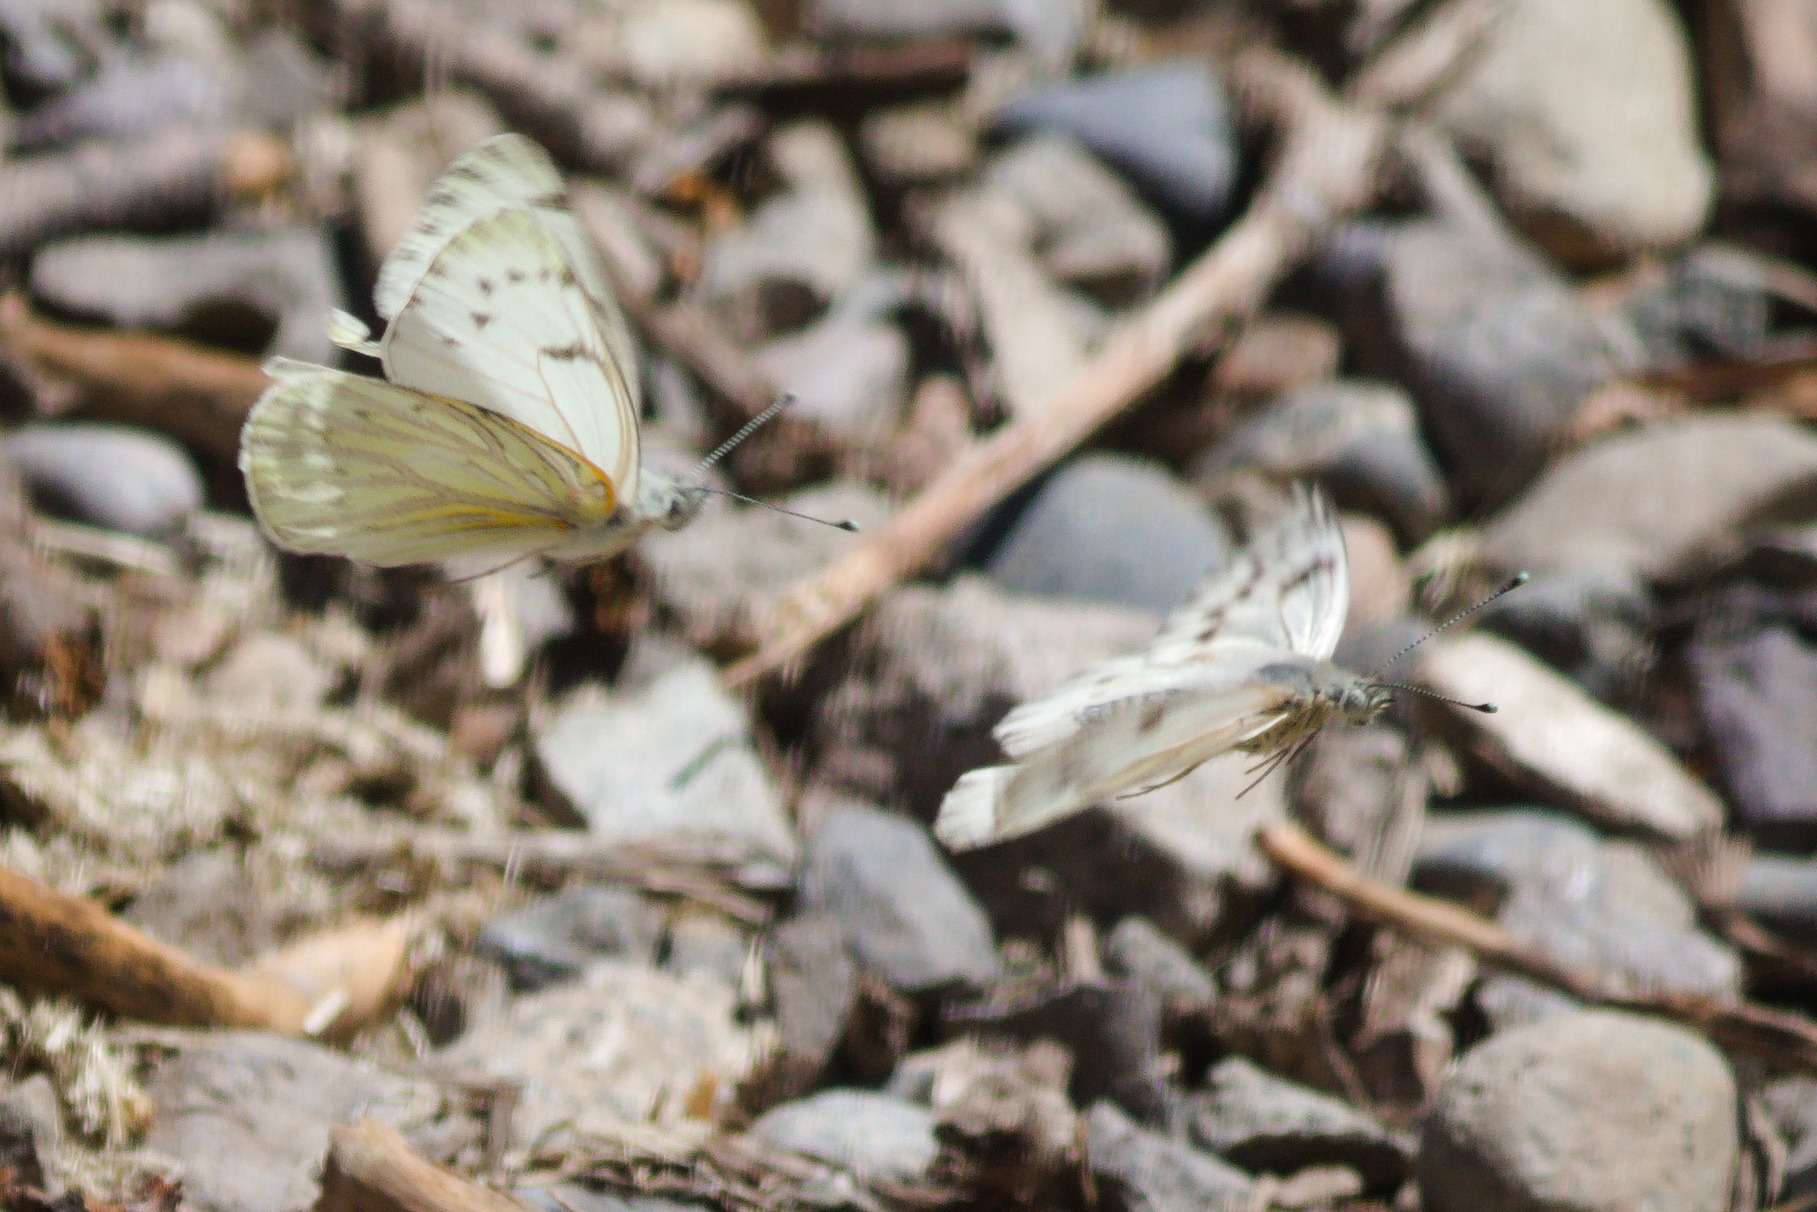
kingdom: Animalia
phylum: Arthropoda
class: Insecta
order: Lepidoptera
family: Pieridae
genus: Tatochila
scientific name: Tatochila mercedis
